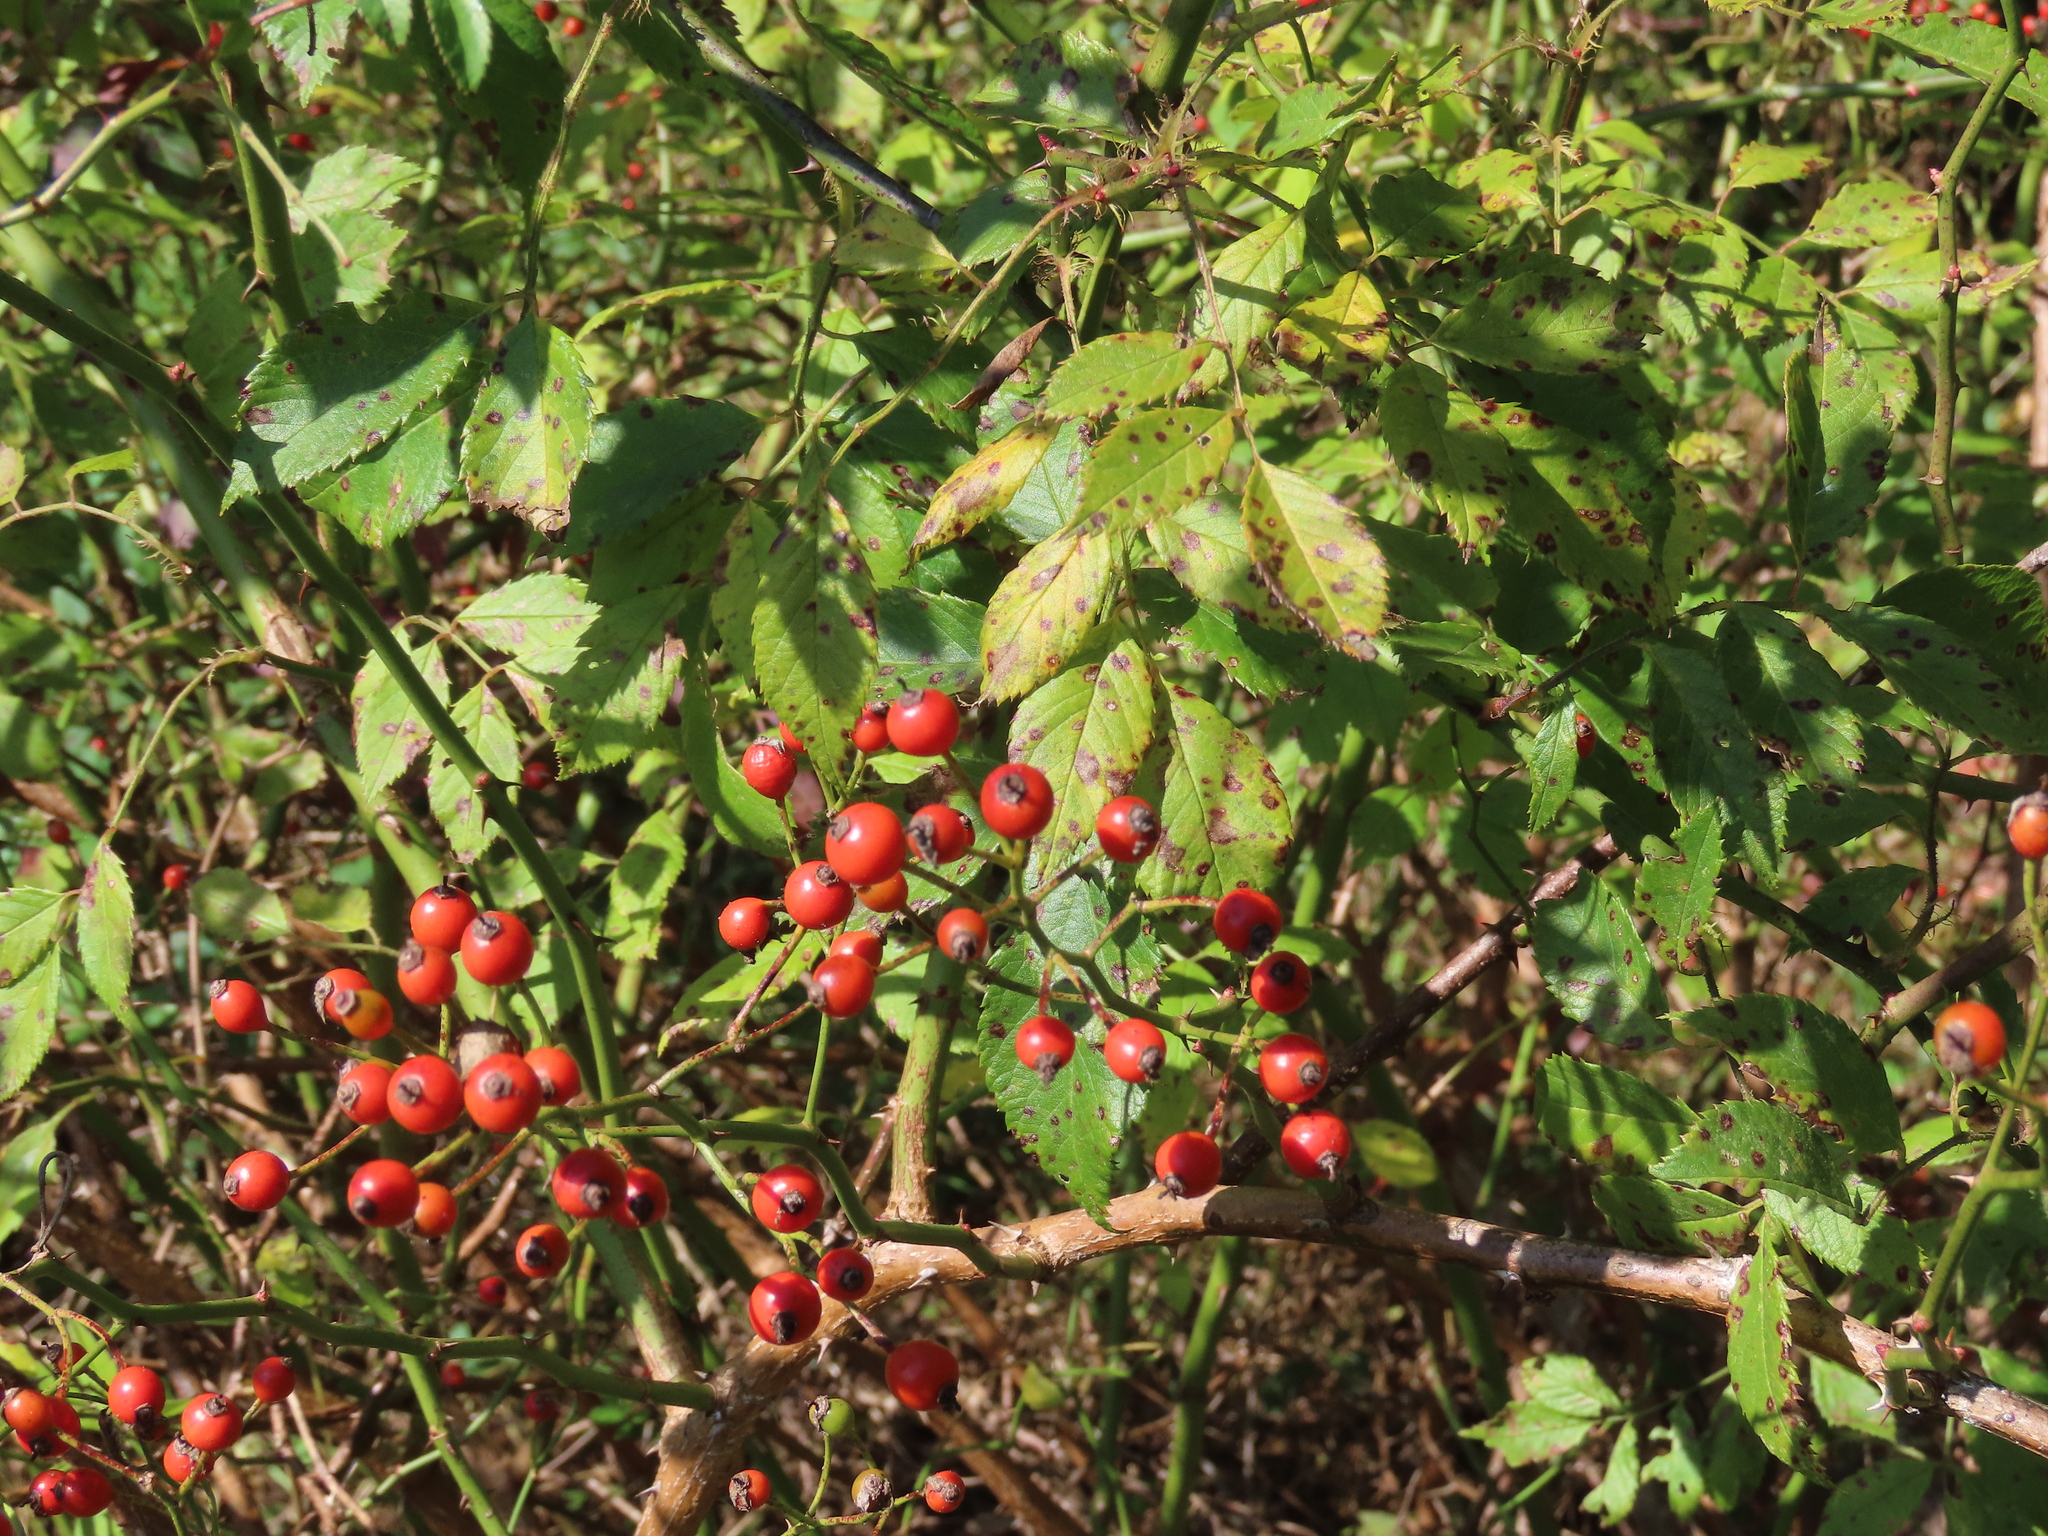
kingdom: Plantae
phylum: Tracheophyta
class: Magnoliopsida
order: Rosales
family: Rosaceae
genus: Rosa
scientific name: Rosa multiflora
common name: Multiflora rose
